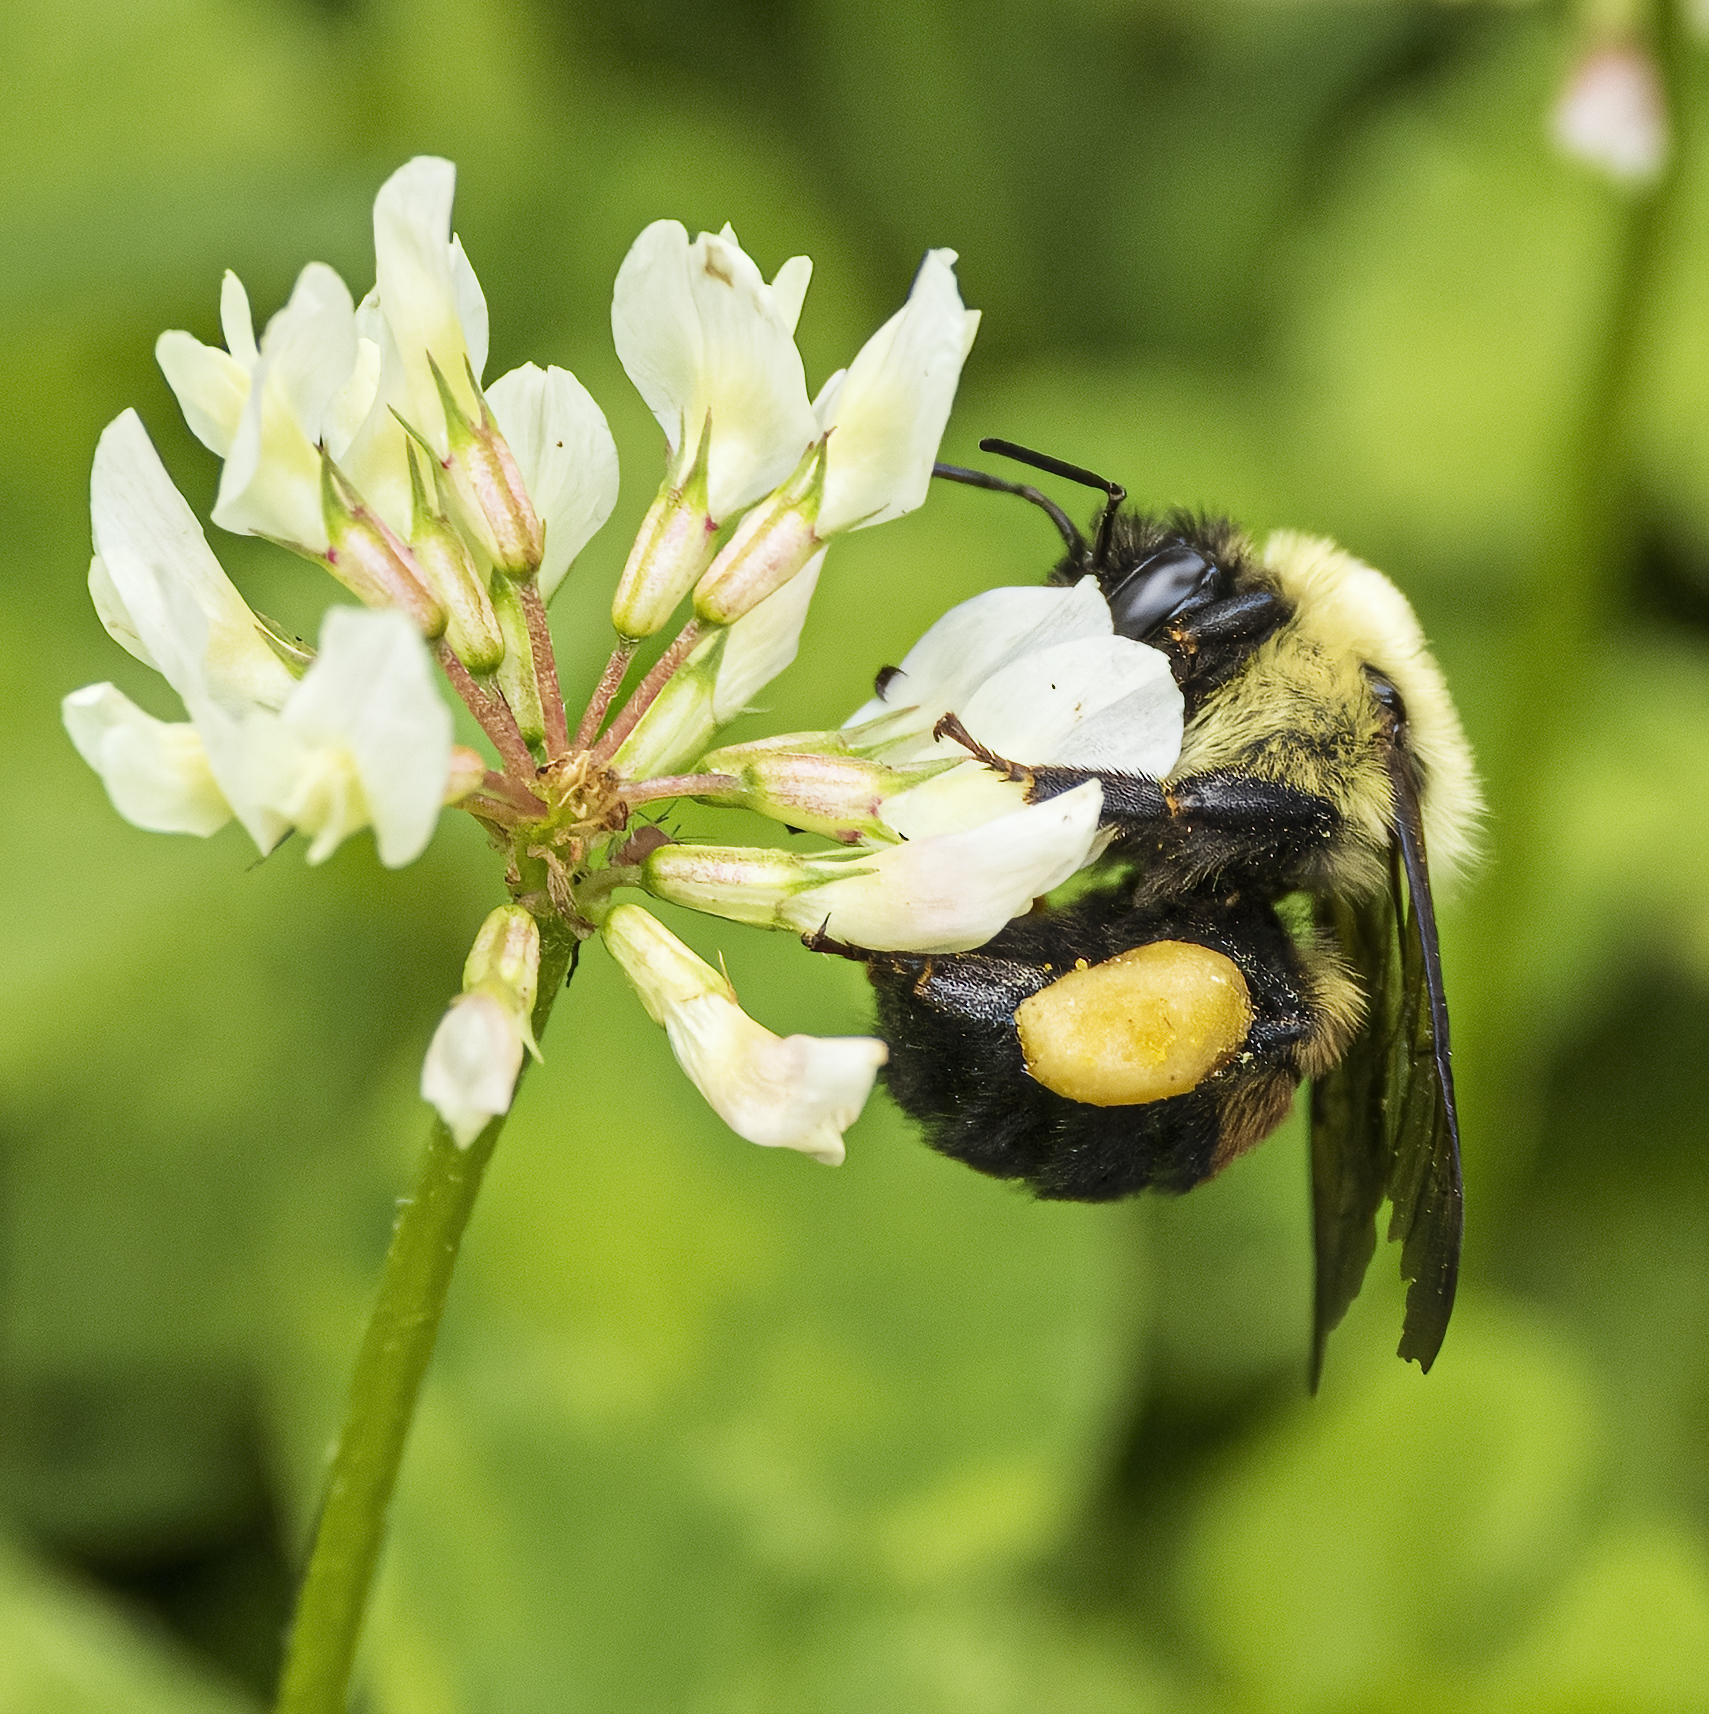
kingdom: Animalia
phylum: Arthropoda
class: Insecta
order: Hymenoptera
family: Apidae
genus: Bombus
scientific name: Bombus griseocollis
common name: Brown-belted bumble bee
